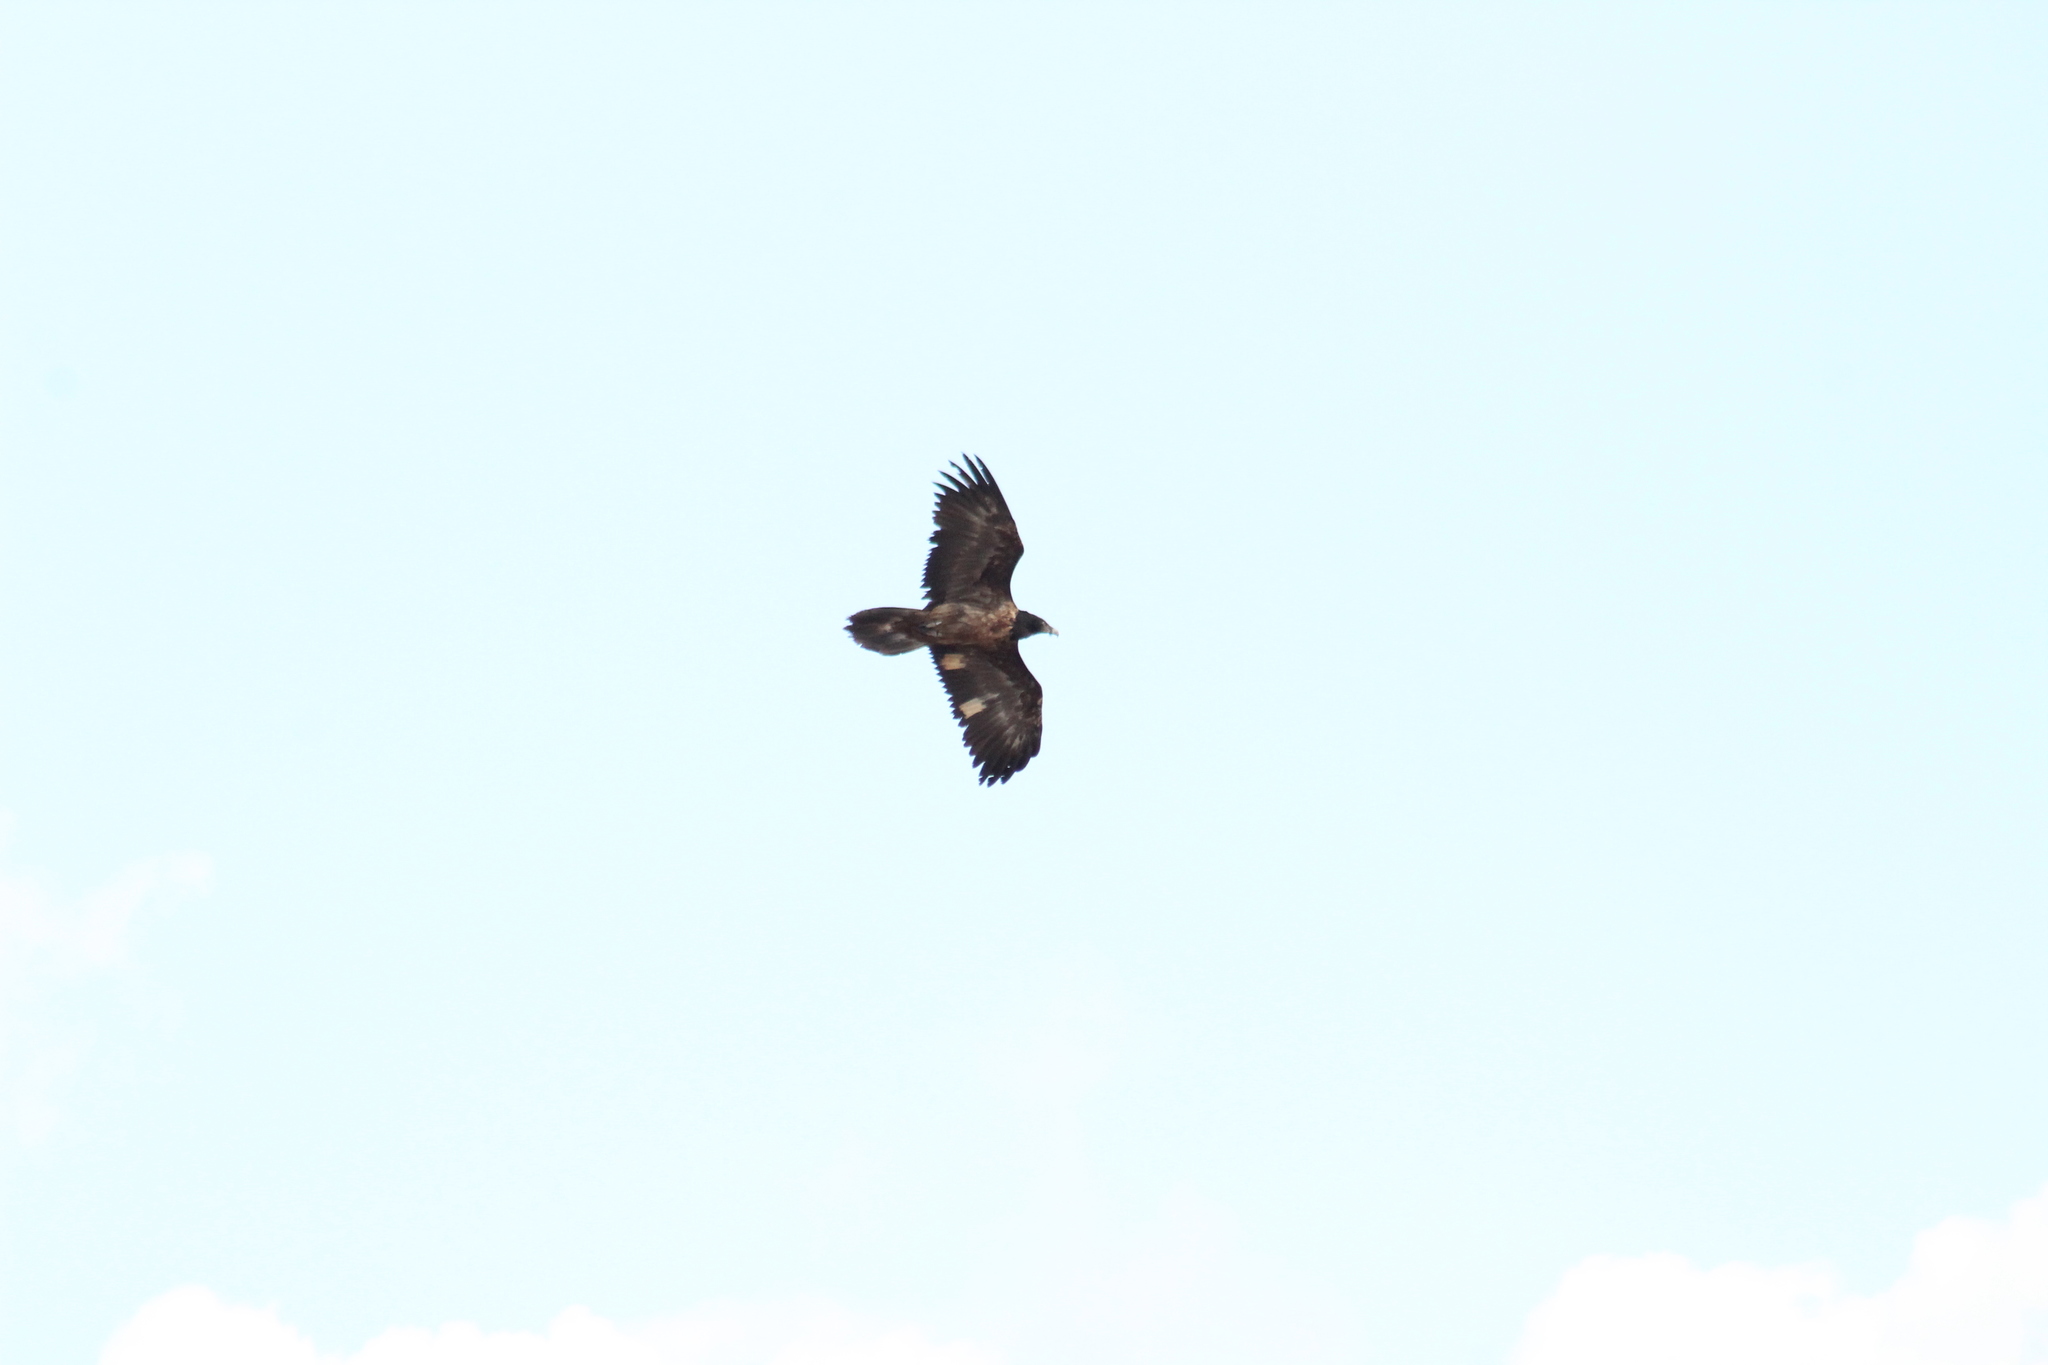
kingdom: Animalia
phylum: Chordata
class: Aves
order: Accipitriformes
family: Accipitridae
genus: Gypaetus
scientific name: Gypaetus barbatus
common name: Bearded vulture
